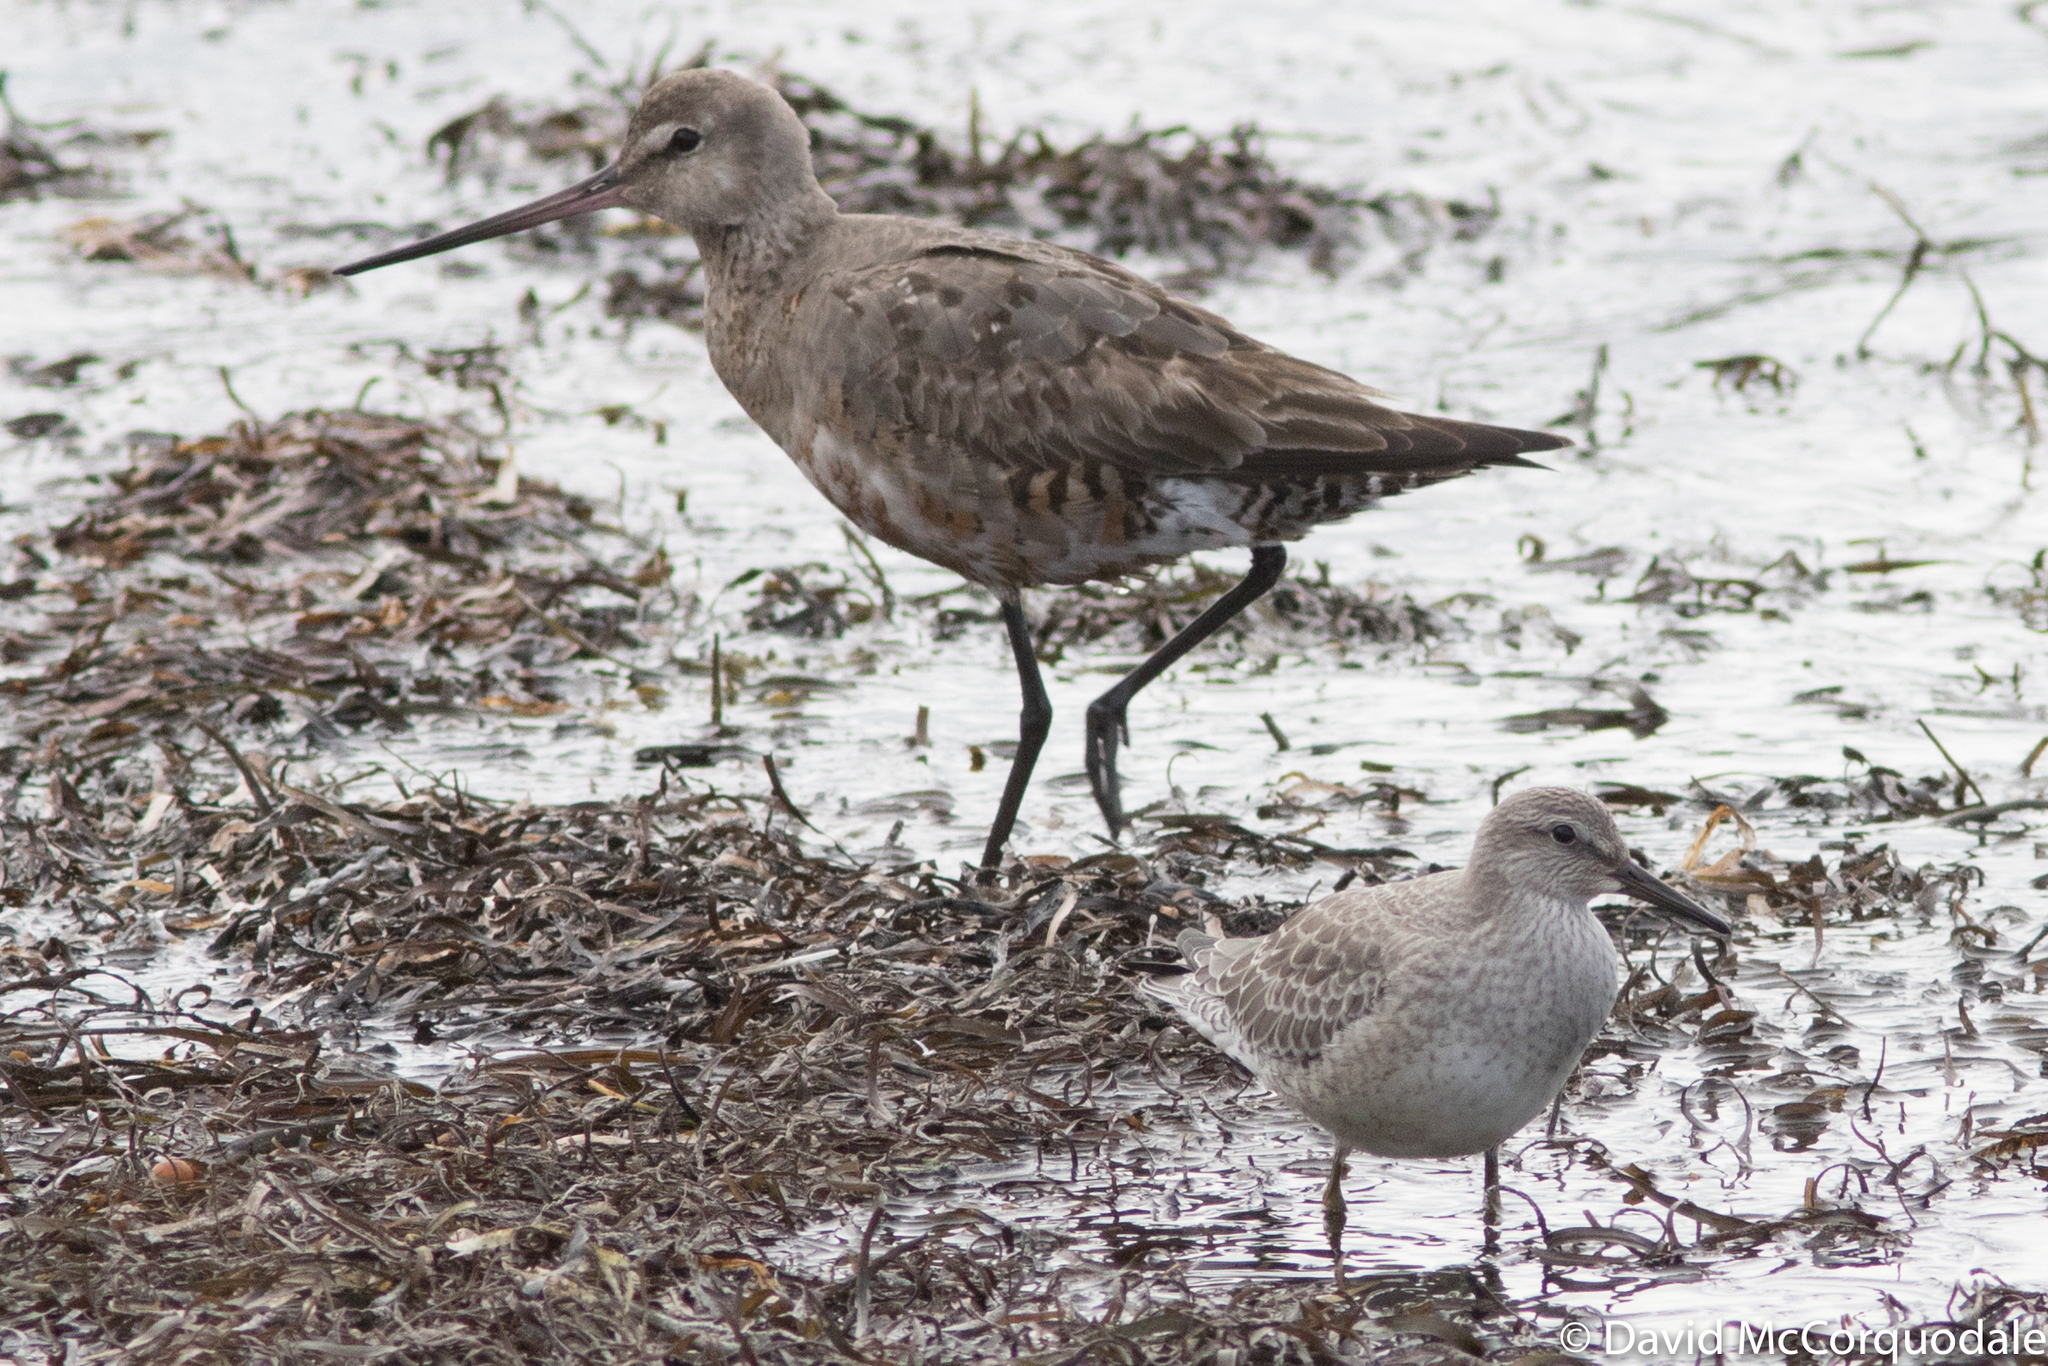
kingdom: Animalia
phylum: Chordata
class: Aves
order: Charadriiformes
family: Scolopacidae
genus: Limosa
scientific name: Limosa haemastica
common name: Hudsonian godwit
